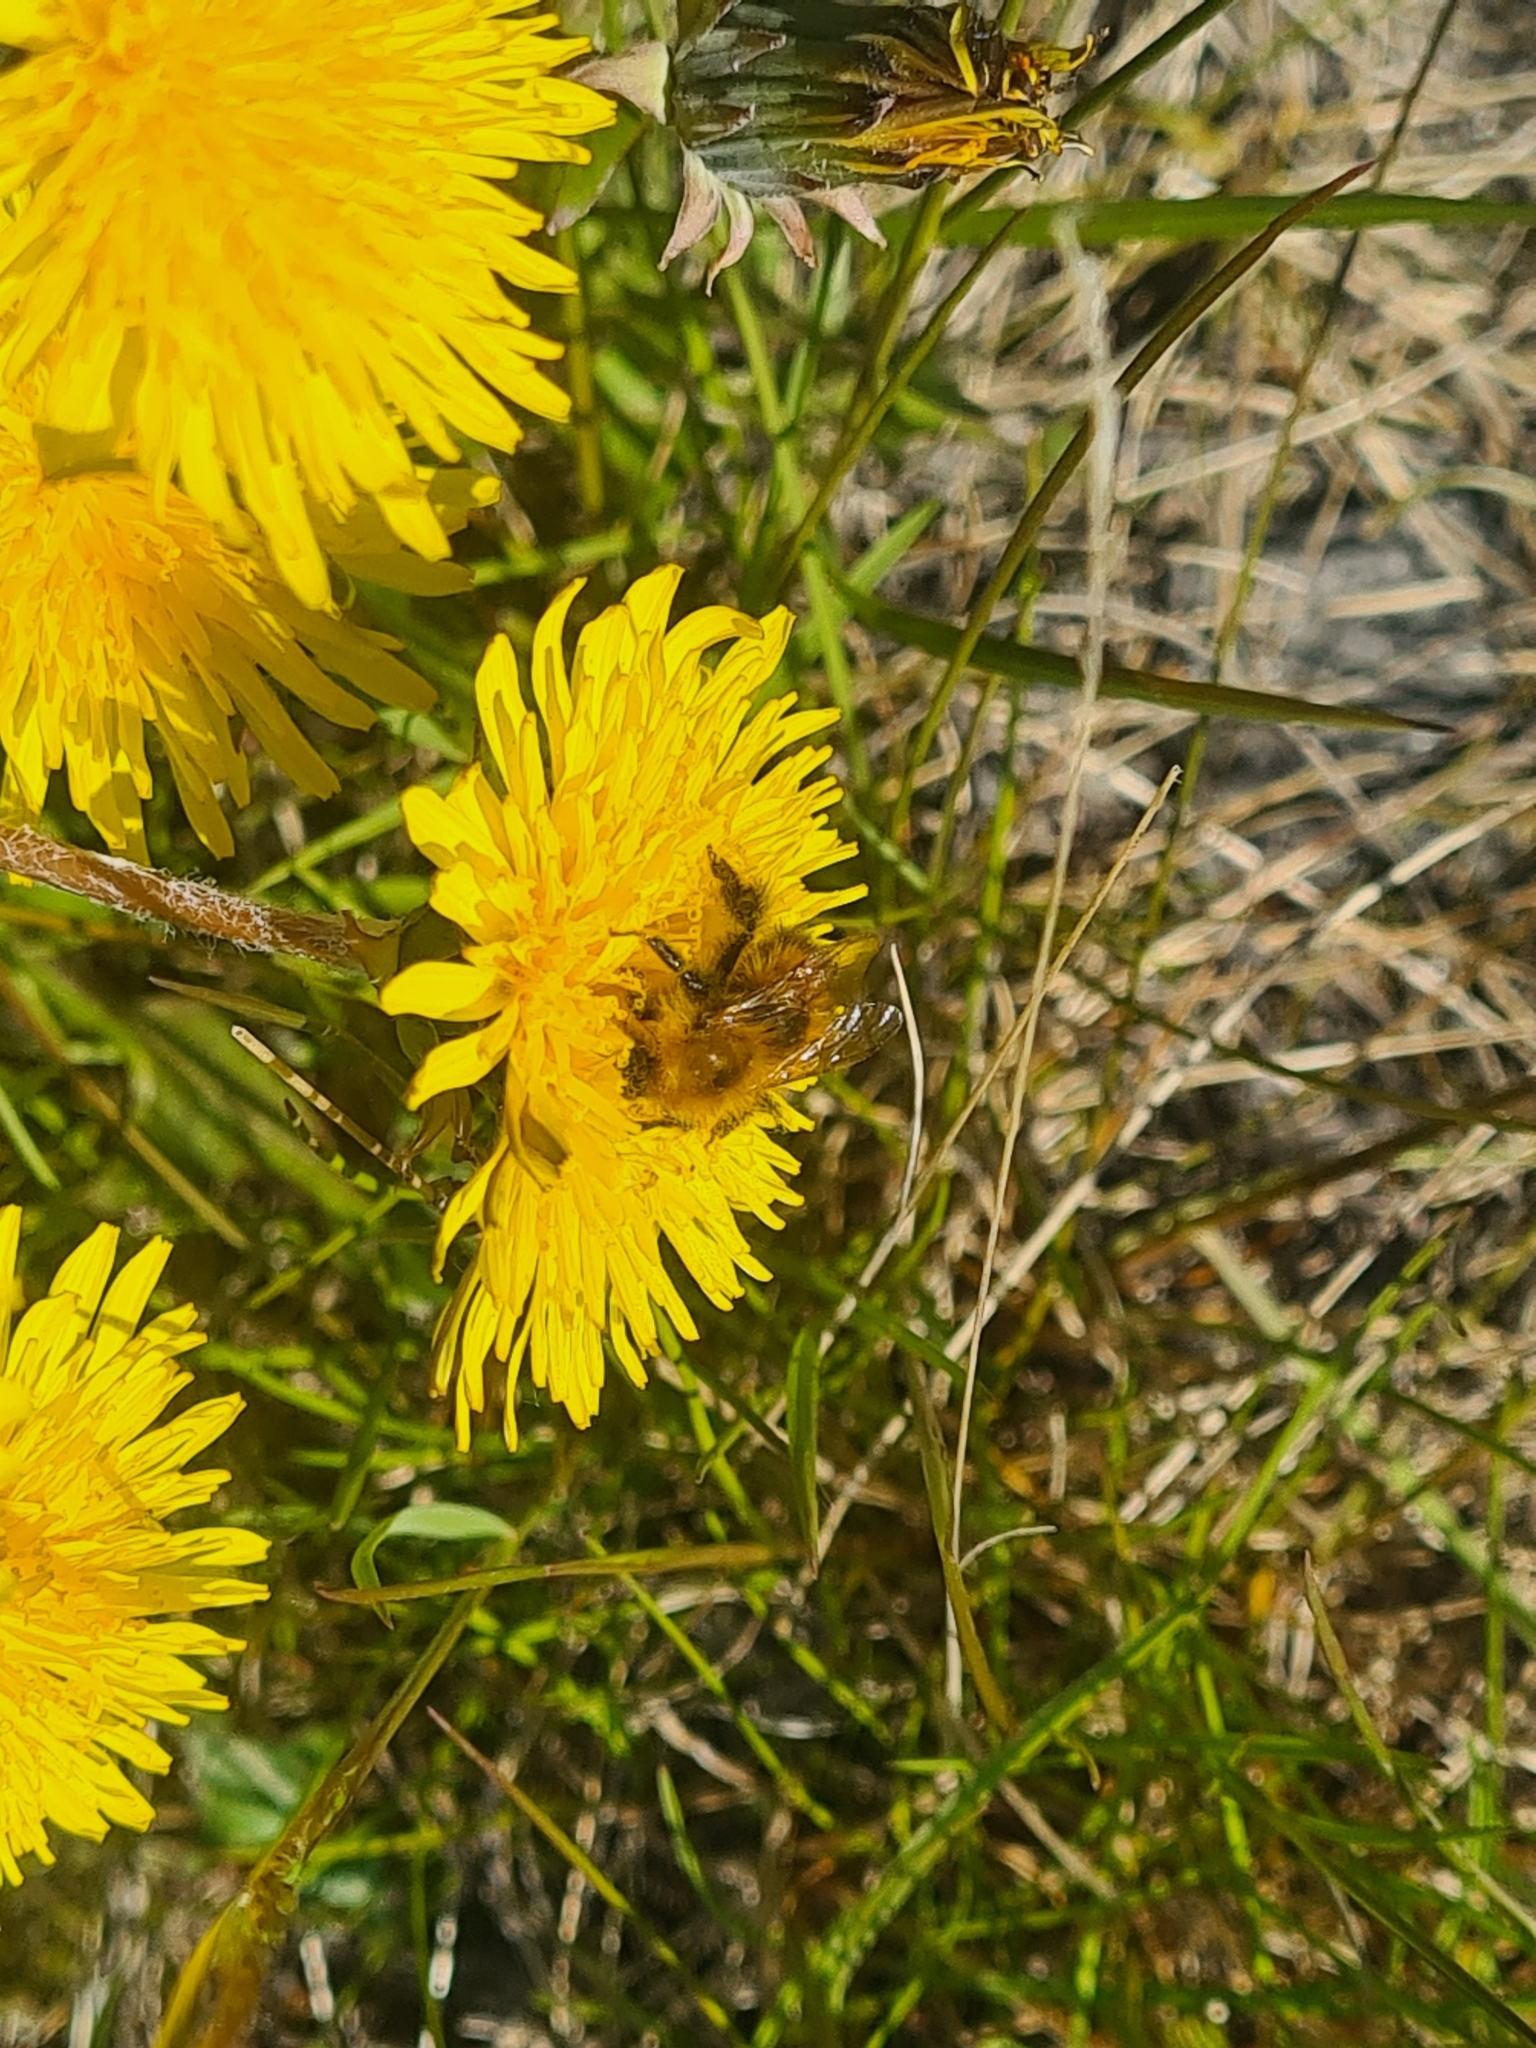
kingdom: Animalia
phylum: Arthropoda
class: Insecta
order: Hymenoptera
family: Apidae
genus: Bombus
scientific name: Bombus hypnorum
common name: New garden bumblebee
